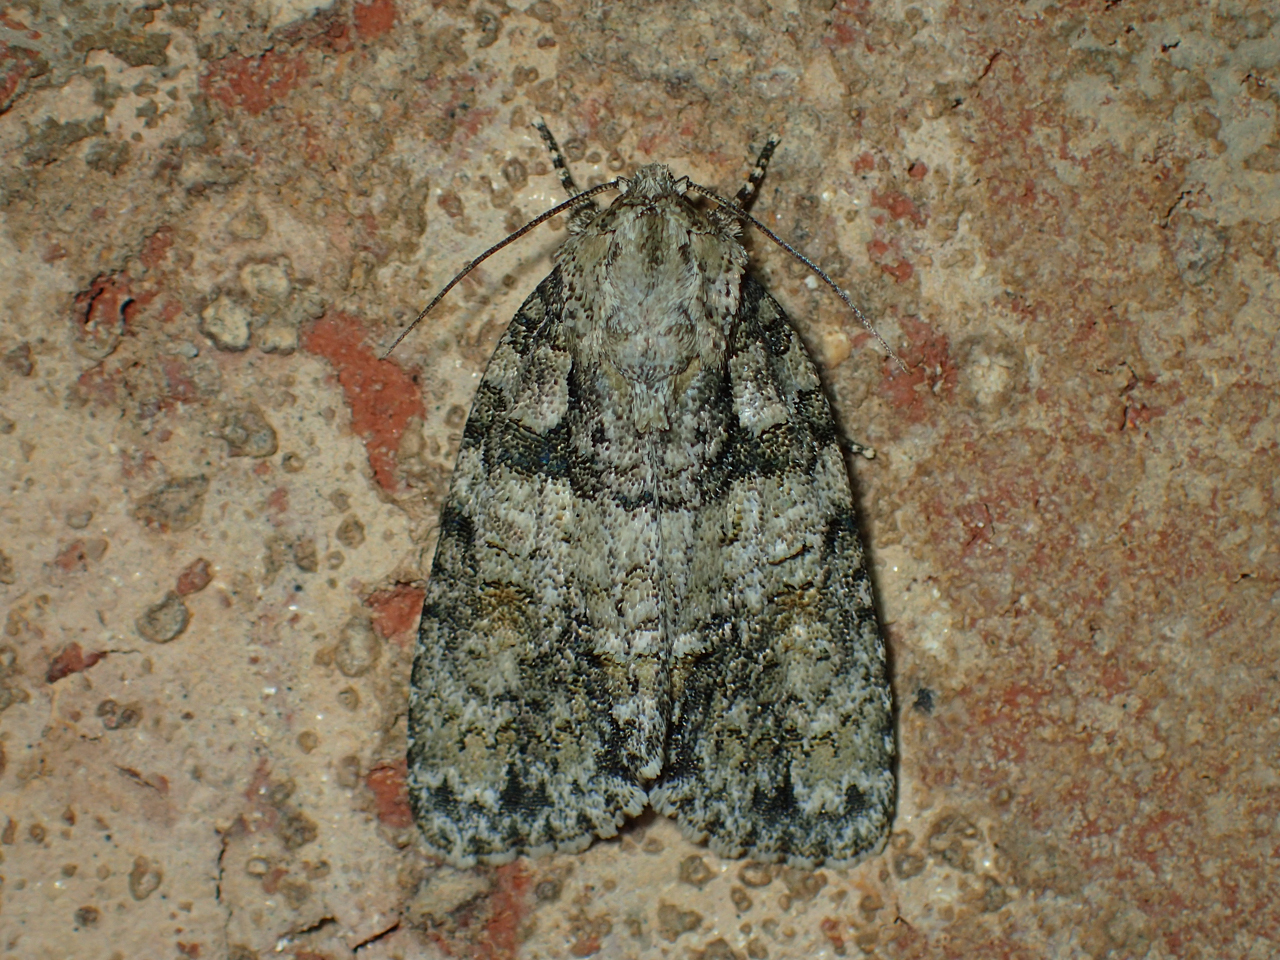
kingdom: Animalia
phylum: Arthropoda
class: Insecta
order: Lepidoptera
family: Noctuidae
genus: Acronicta
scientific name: Acronicta ovata
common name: Epauleted oak dagger
